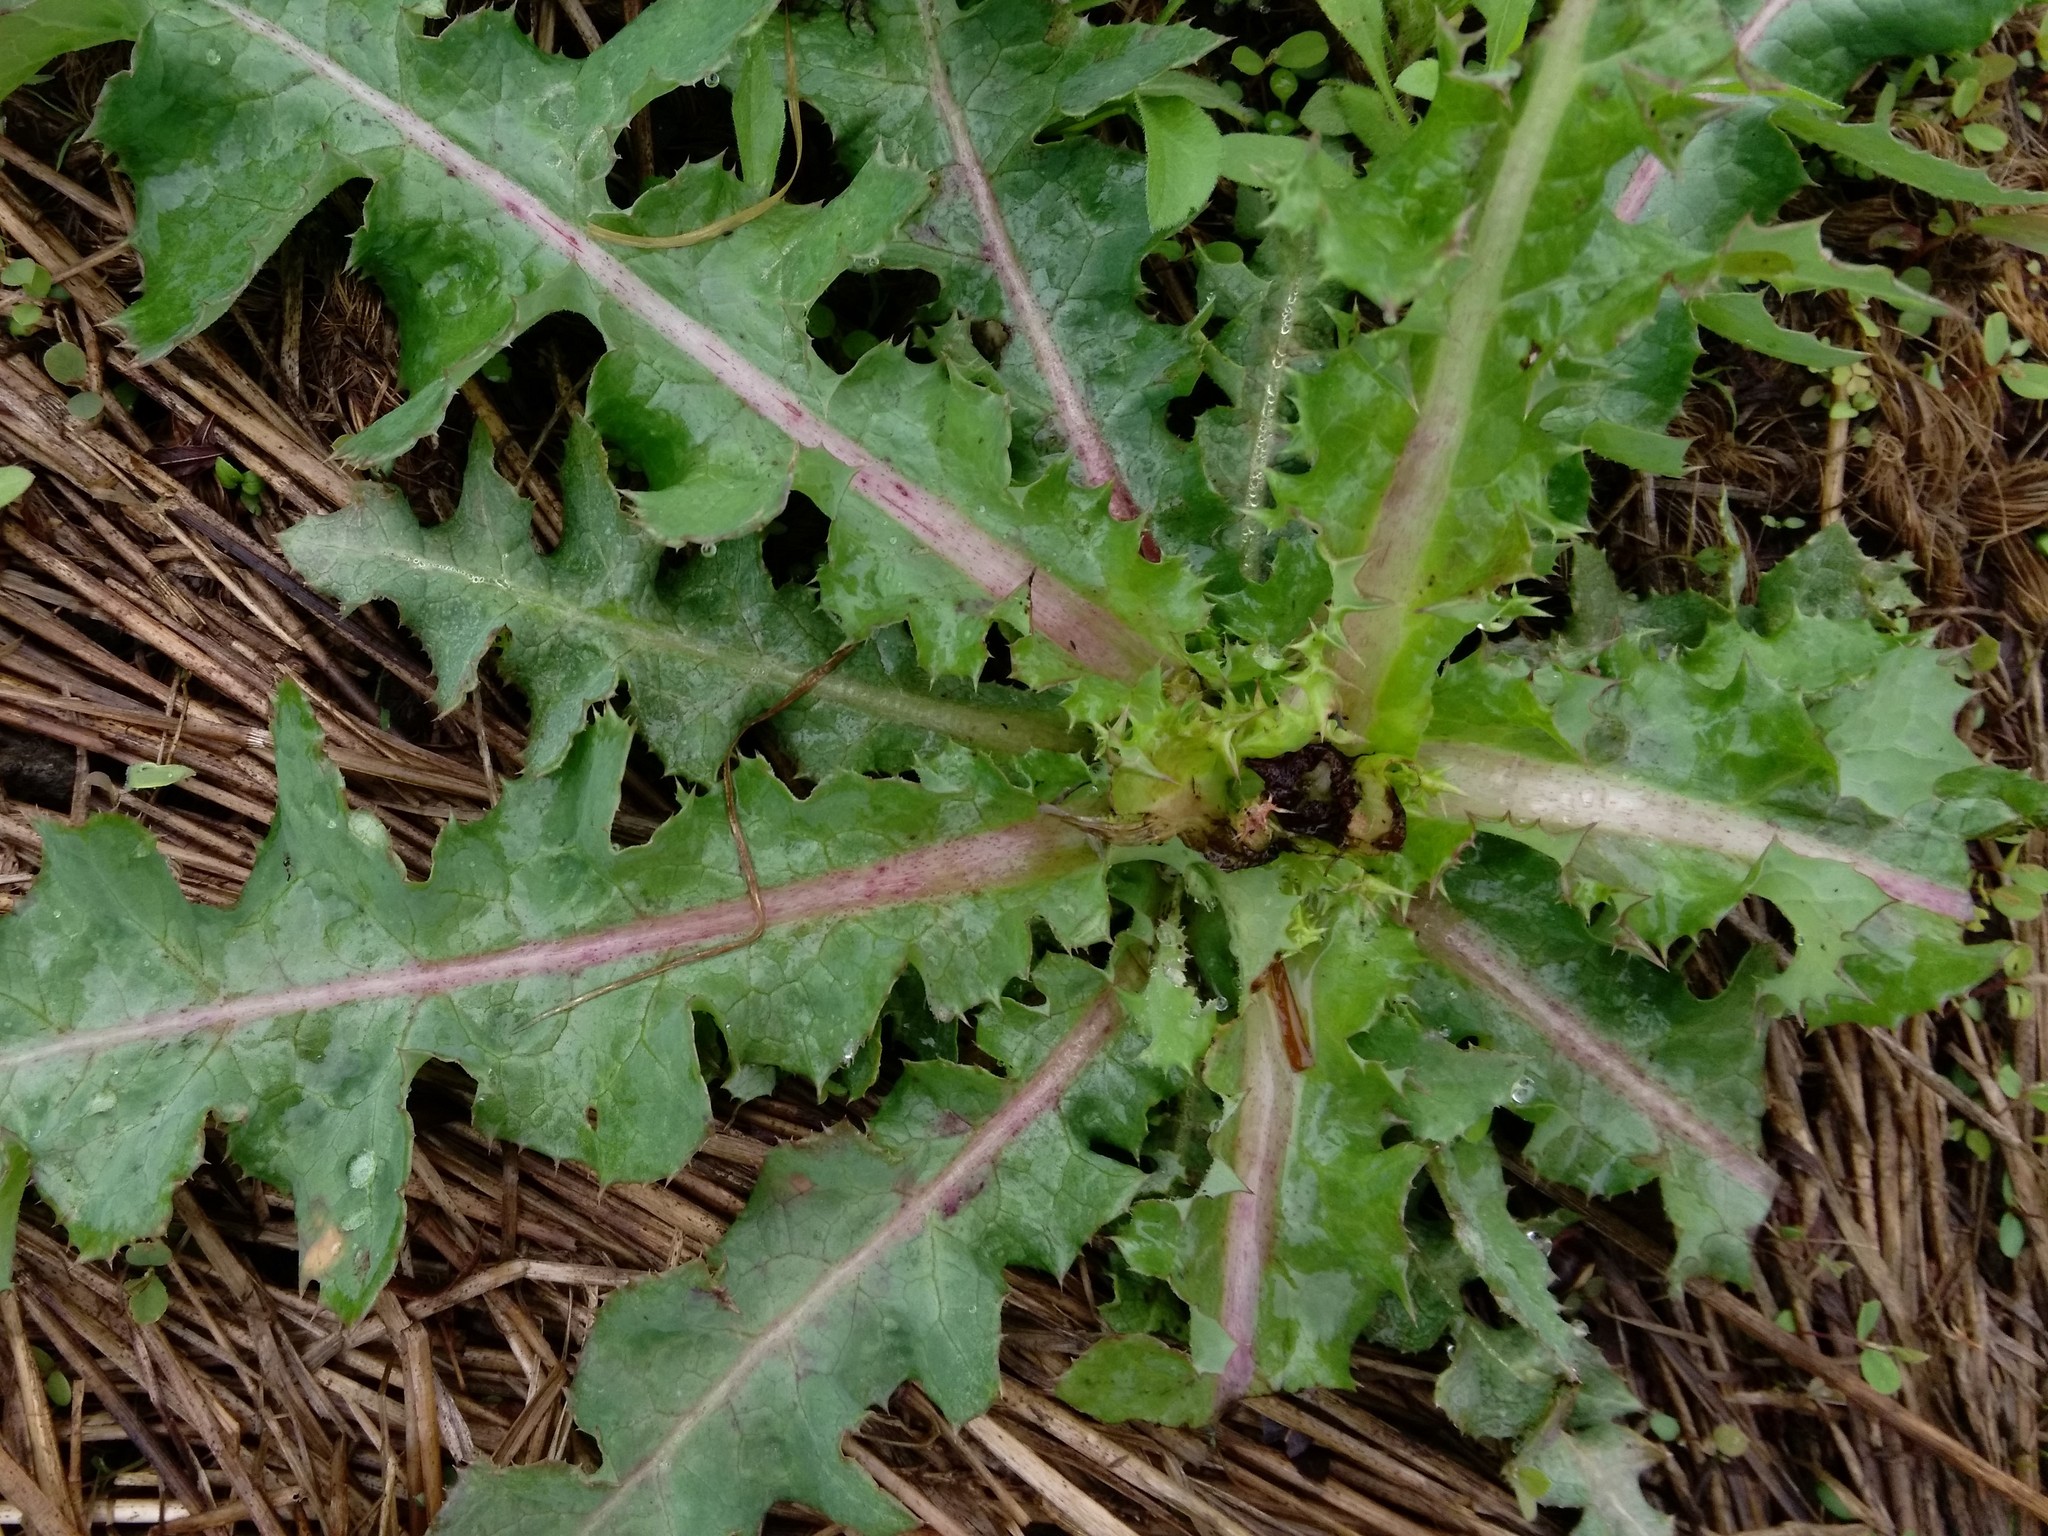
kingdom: Plantae
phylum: Tracheophyta
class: Magnoliopsida
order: Asterales
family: Asteraceae
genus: Sonchus
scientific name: Sonchus asper
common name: Prickly sow-thistle
